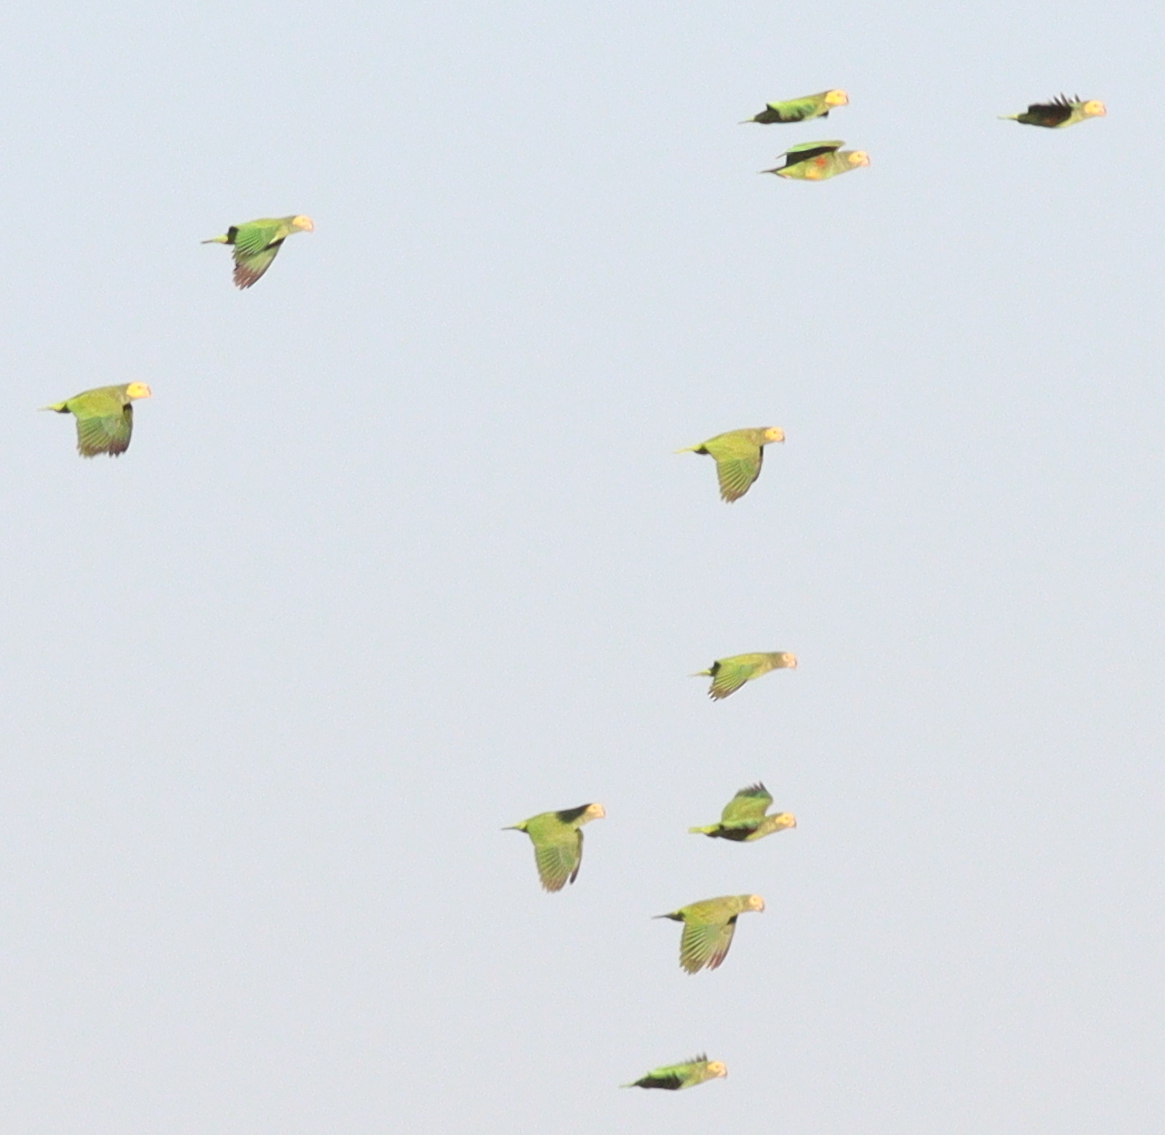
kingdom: Animalia
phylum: Chordata
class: Aves
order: Psittaciformes
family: Psittacidae
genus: Amazona
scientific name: Amazona xanthops
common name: Yellow-faced amazon
